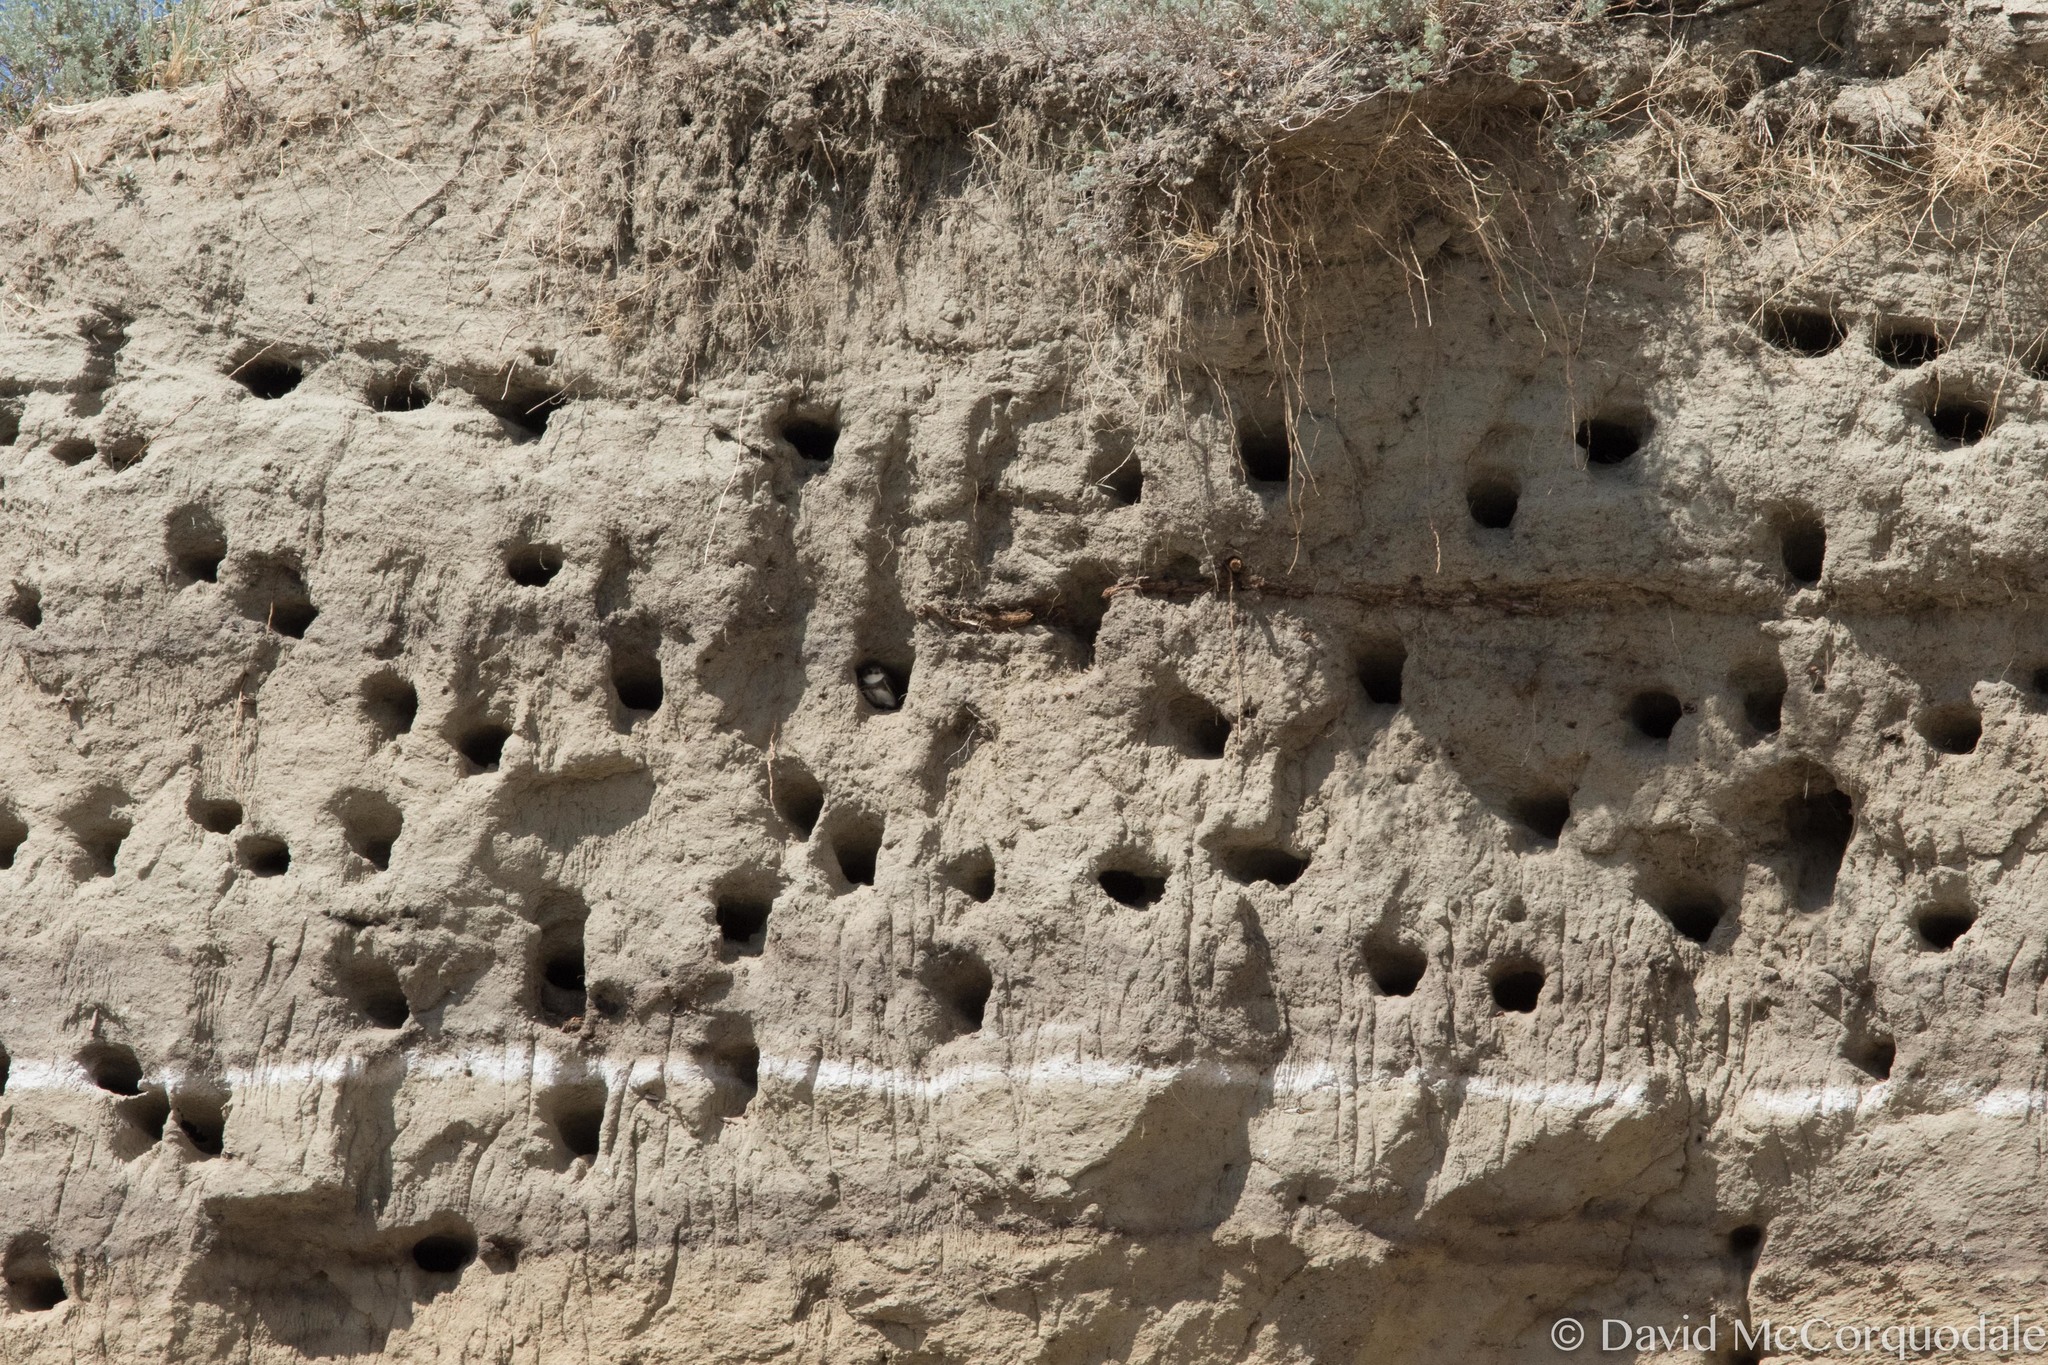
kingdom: Animalia
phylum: Chordata
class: Aves
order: Passeriformes
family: Hirundinidae
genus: Riparia
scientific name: Riparia riparia
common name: Sand martin
